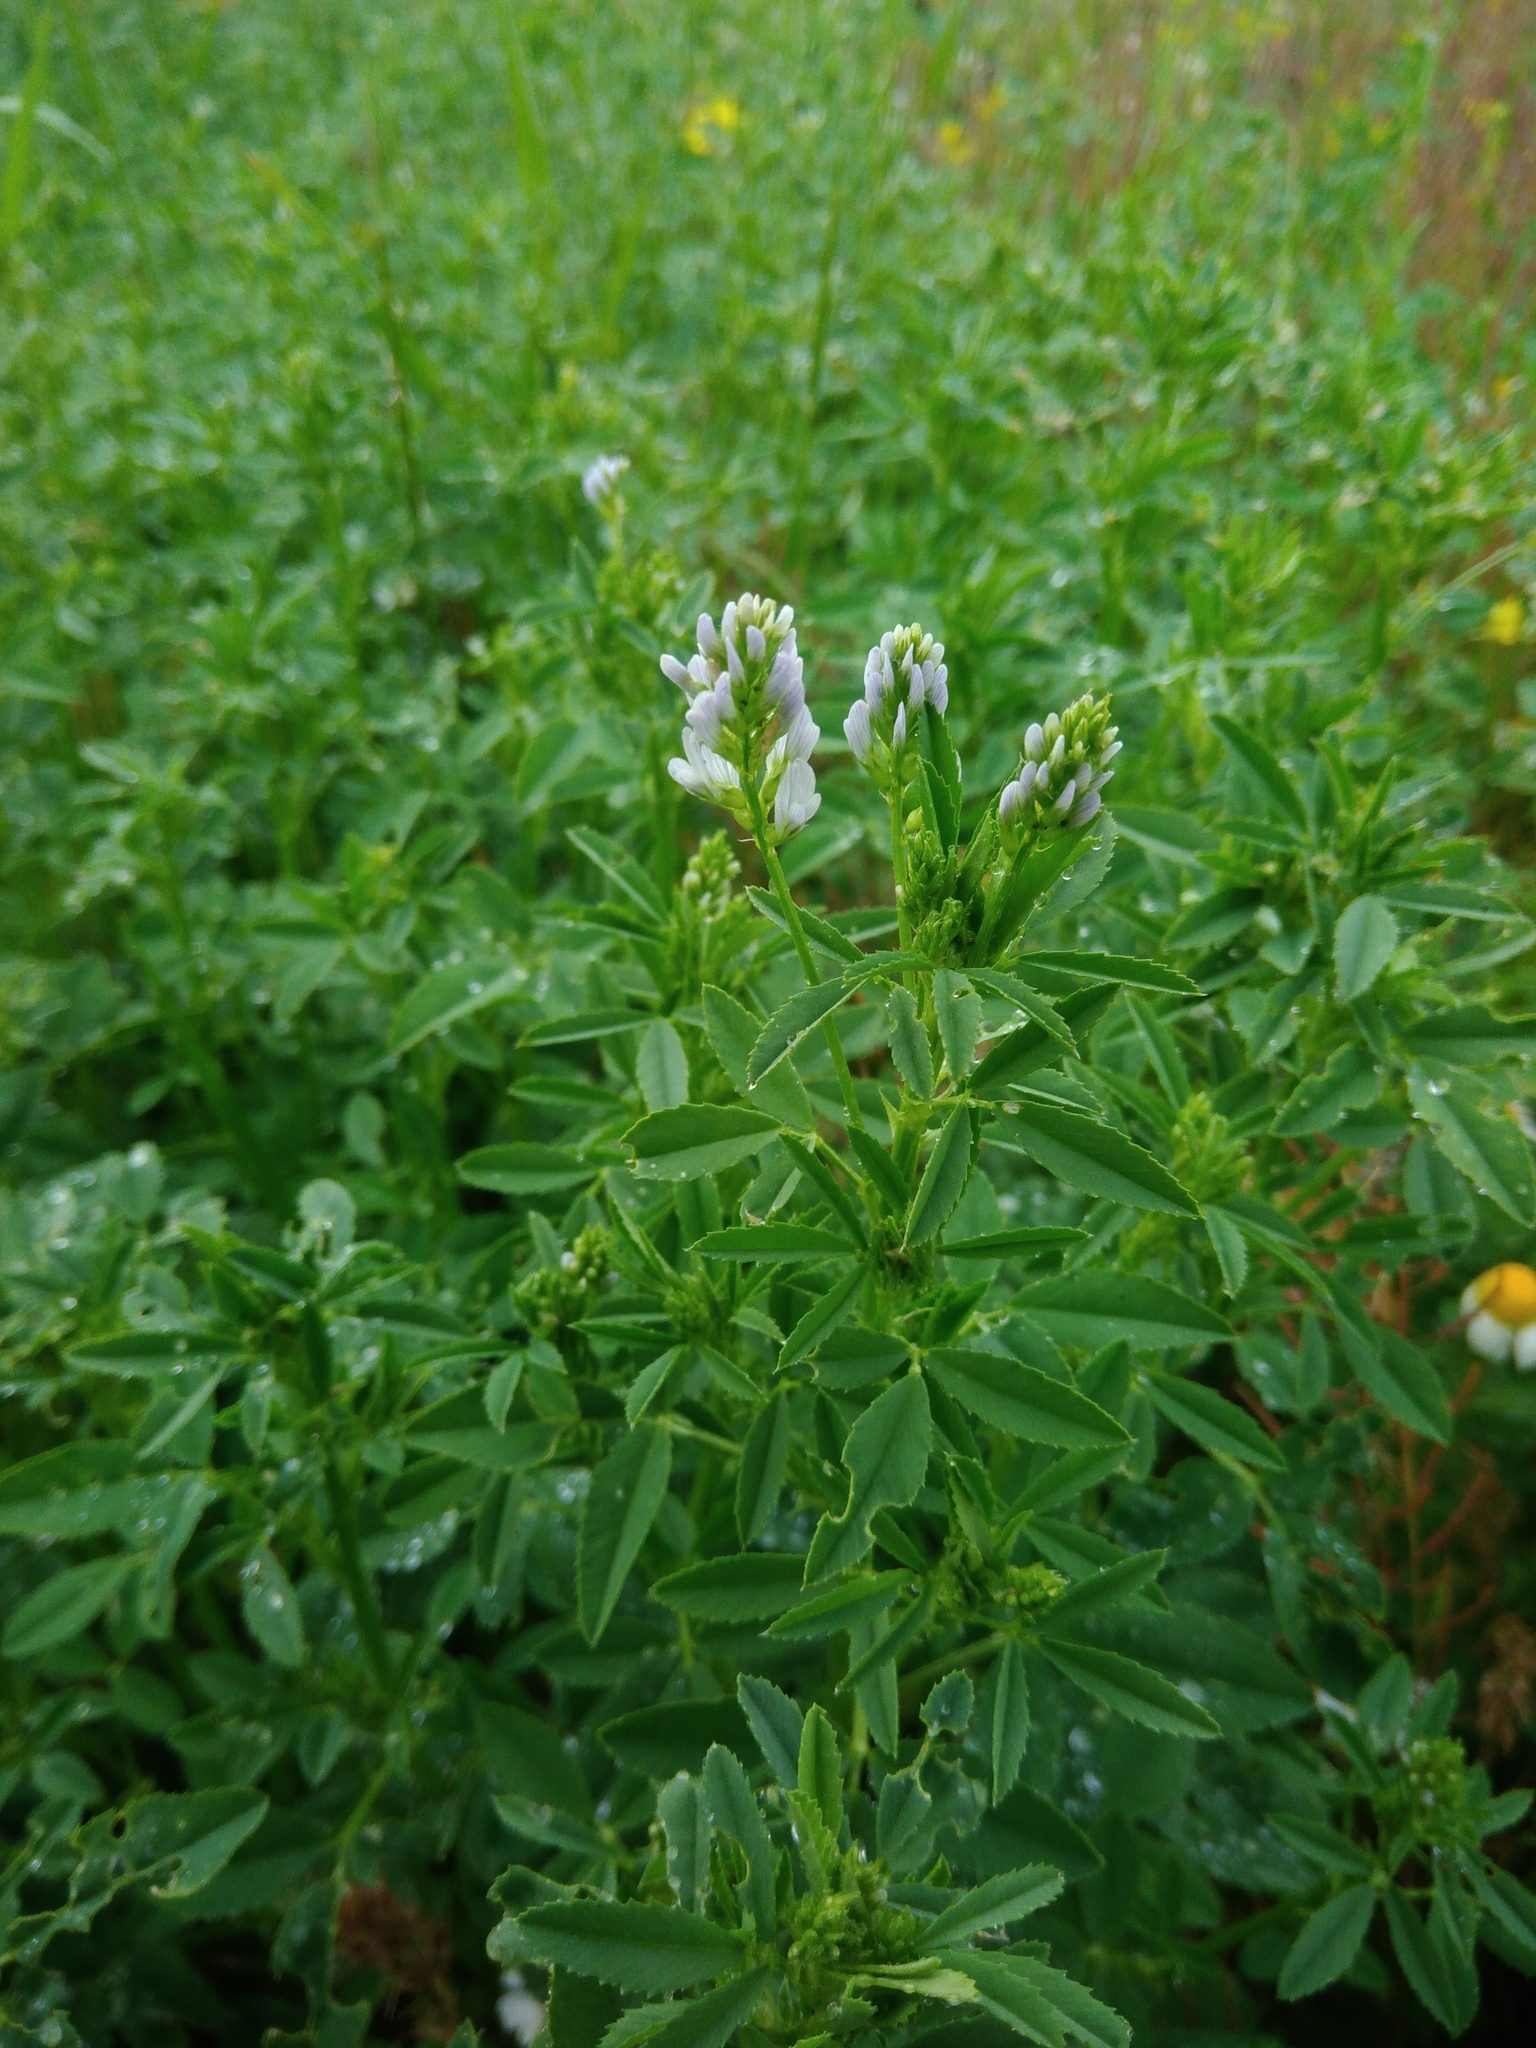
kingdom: Plantae
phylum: Tracheophyta
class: Magnoliopsida
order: Fabales
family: Fabaceae
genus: Trigonella
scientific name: Trigonella procumbens
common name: Trailing fenugreek
